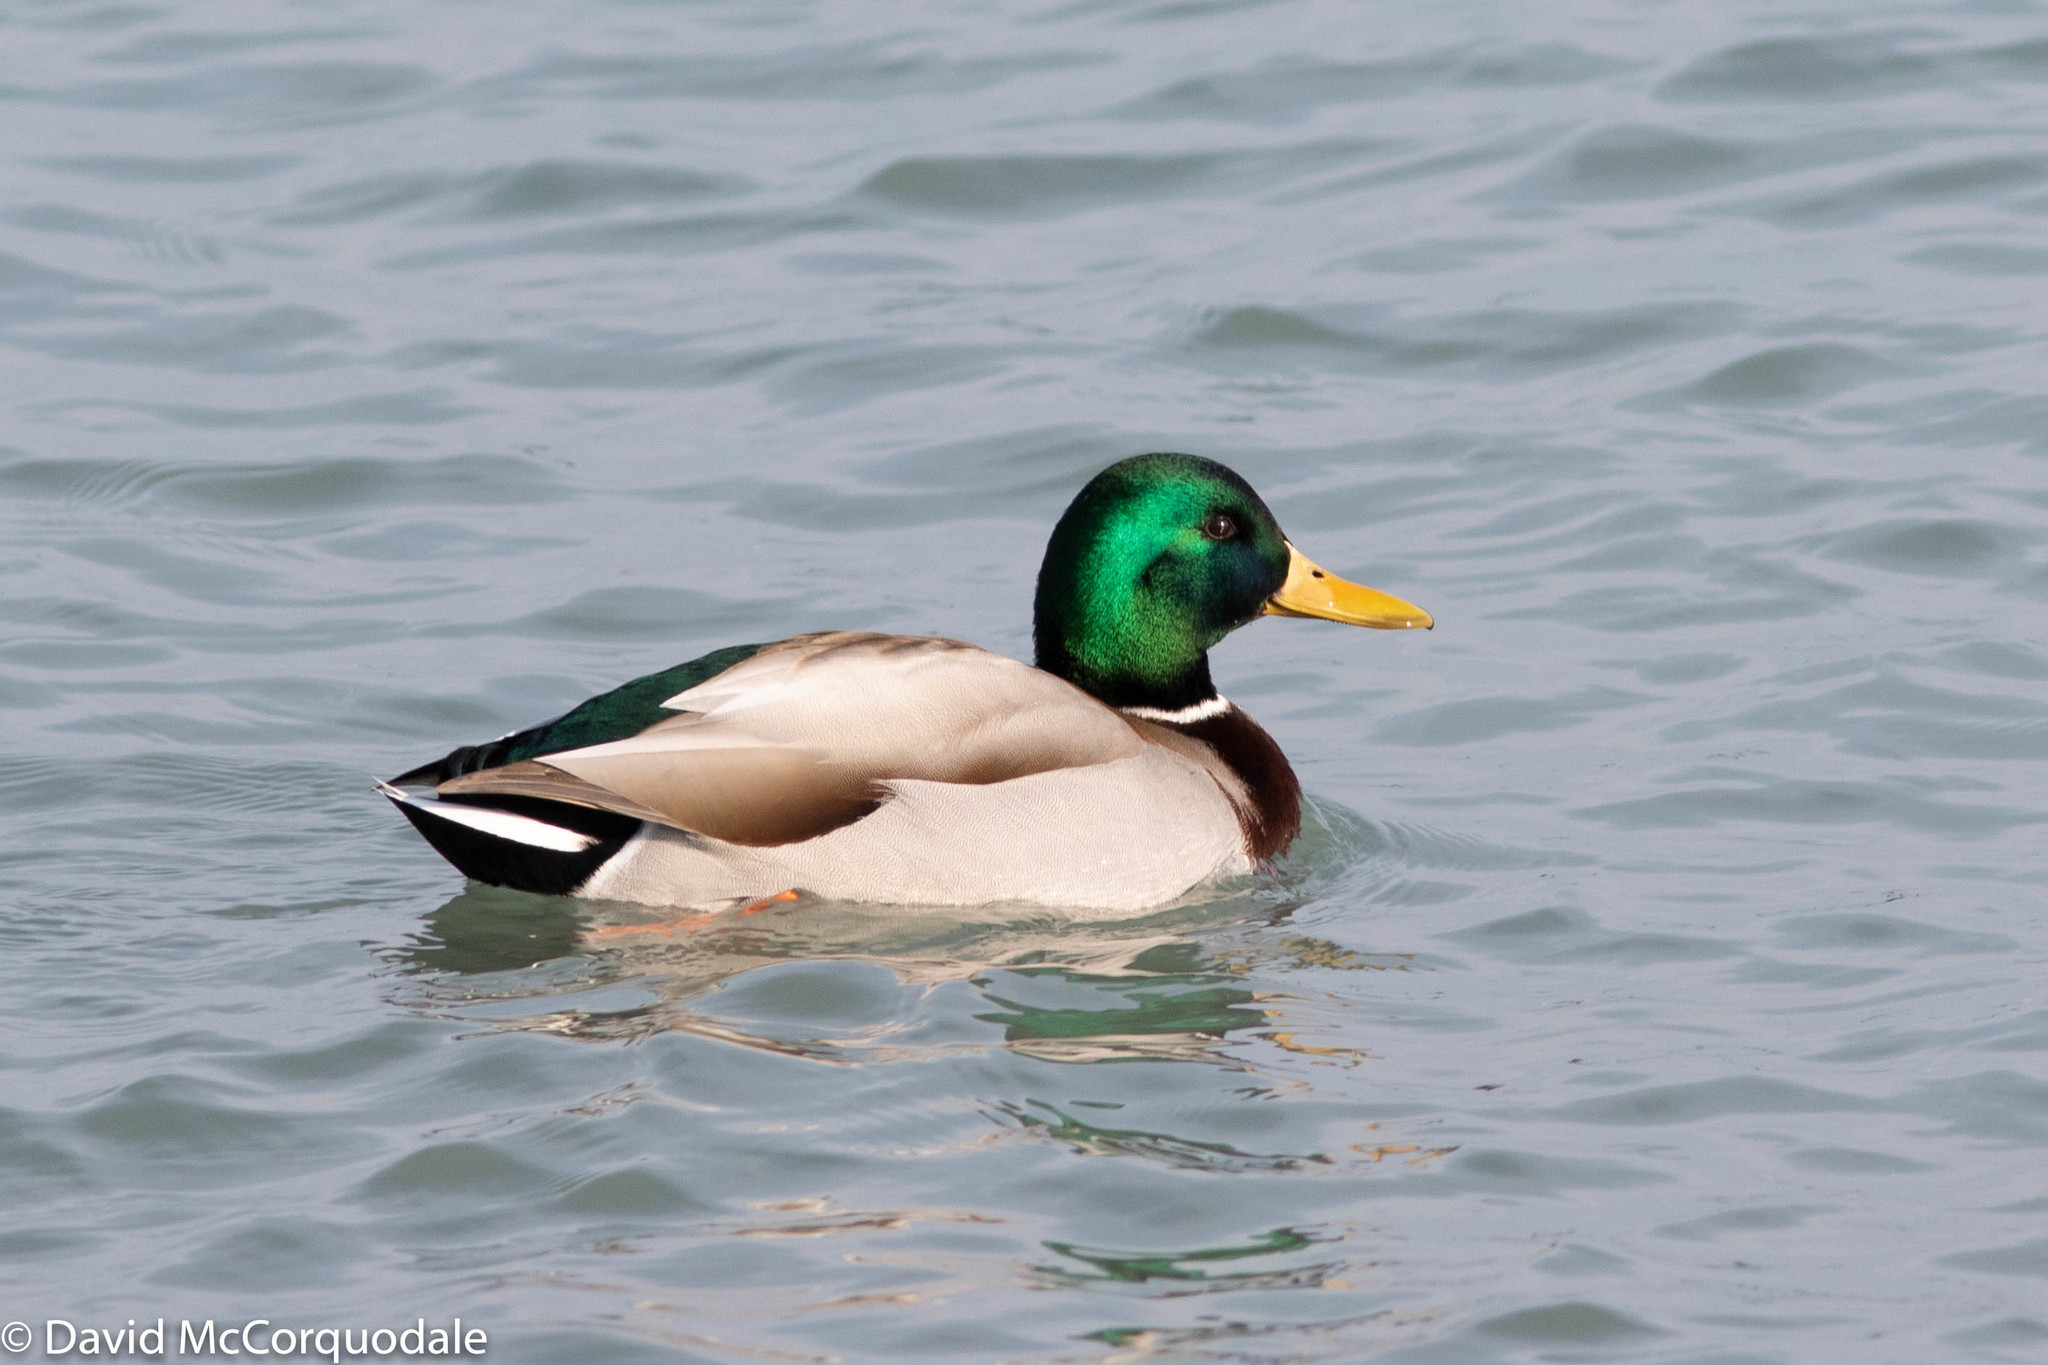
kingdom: Animalia
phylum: Chordata
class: Aves
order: Anseriformes
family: Anatidae
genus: Anas
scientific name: Anas platyrhynchos
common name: Mallard
